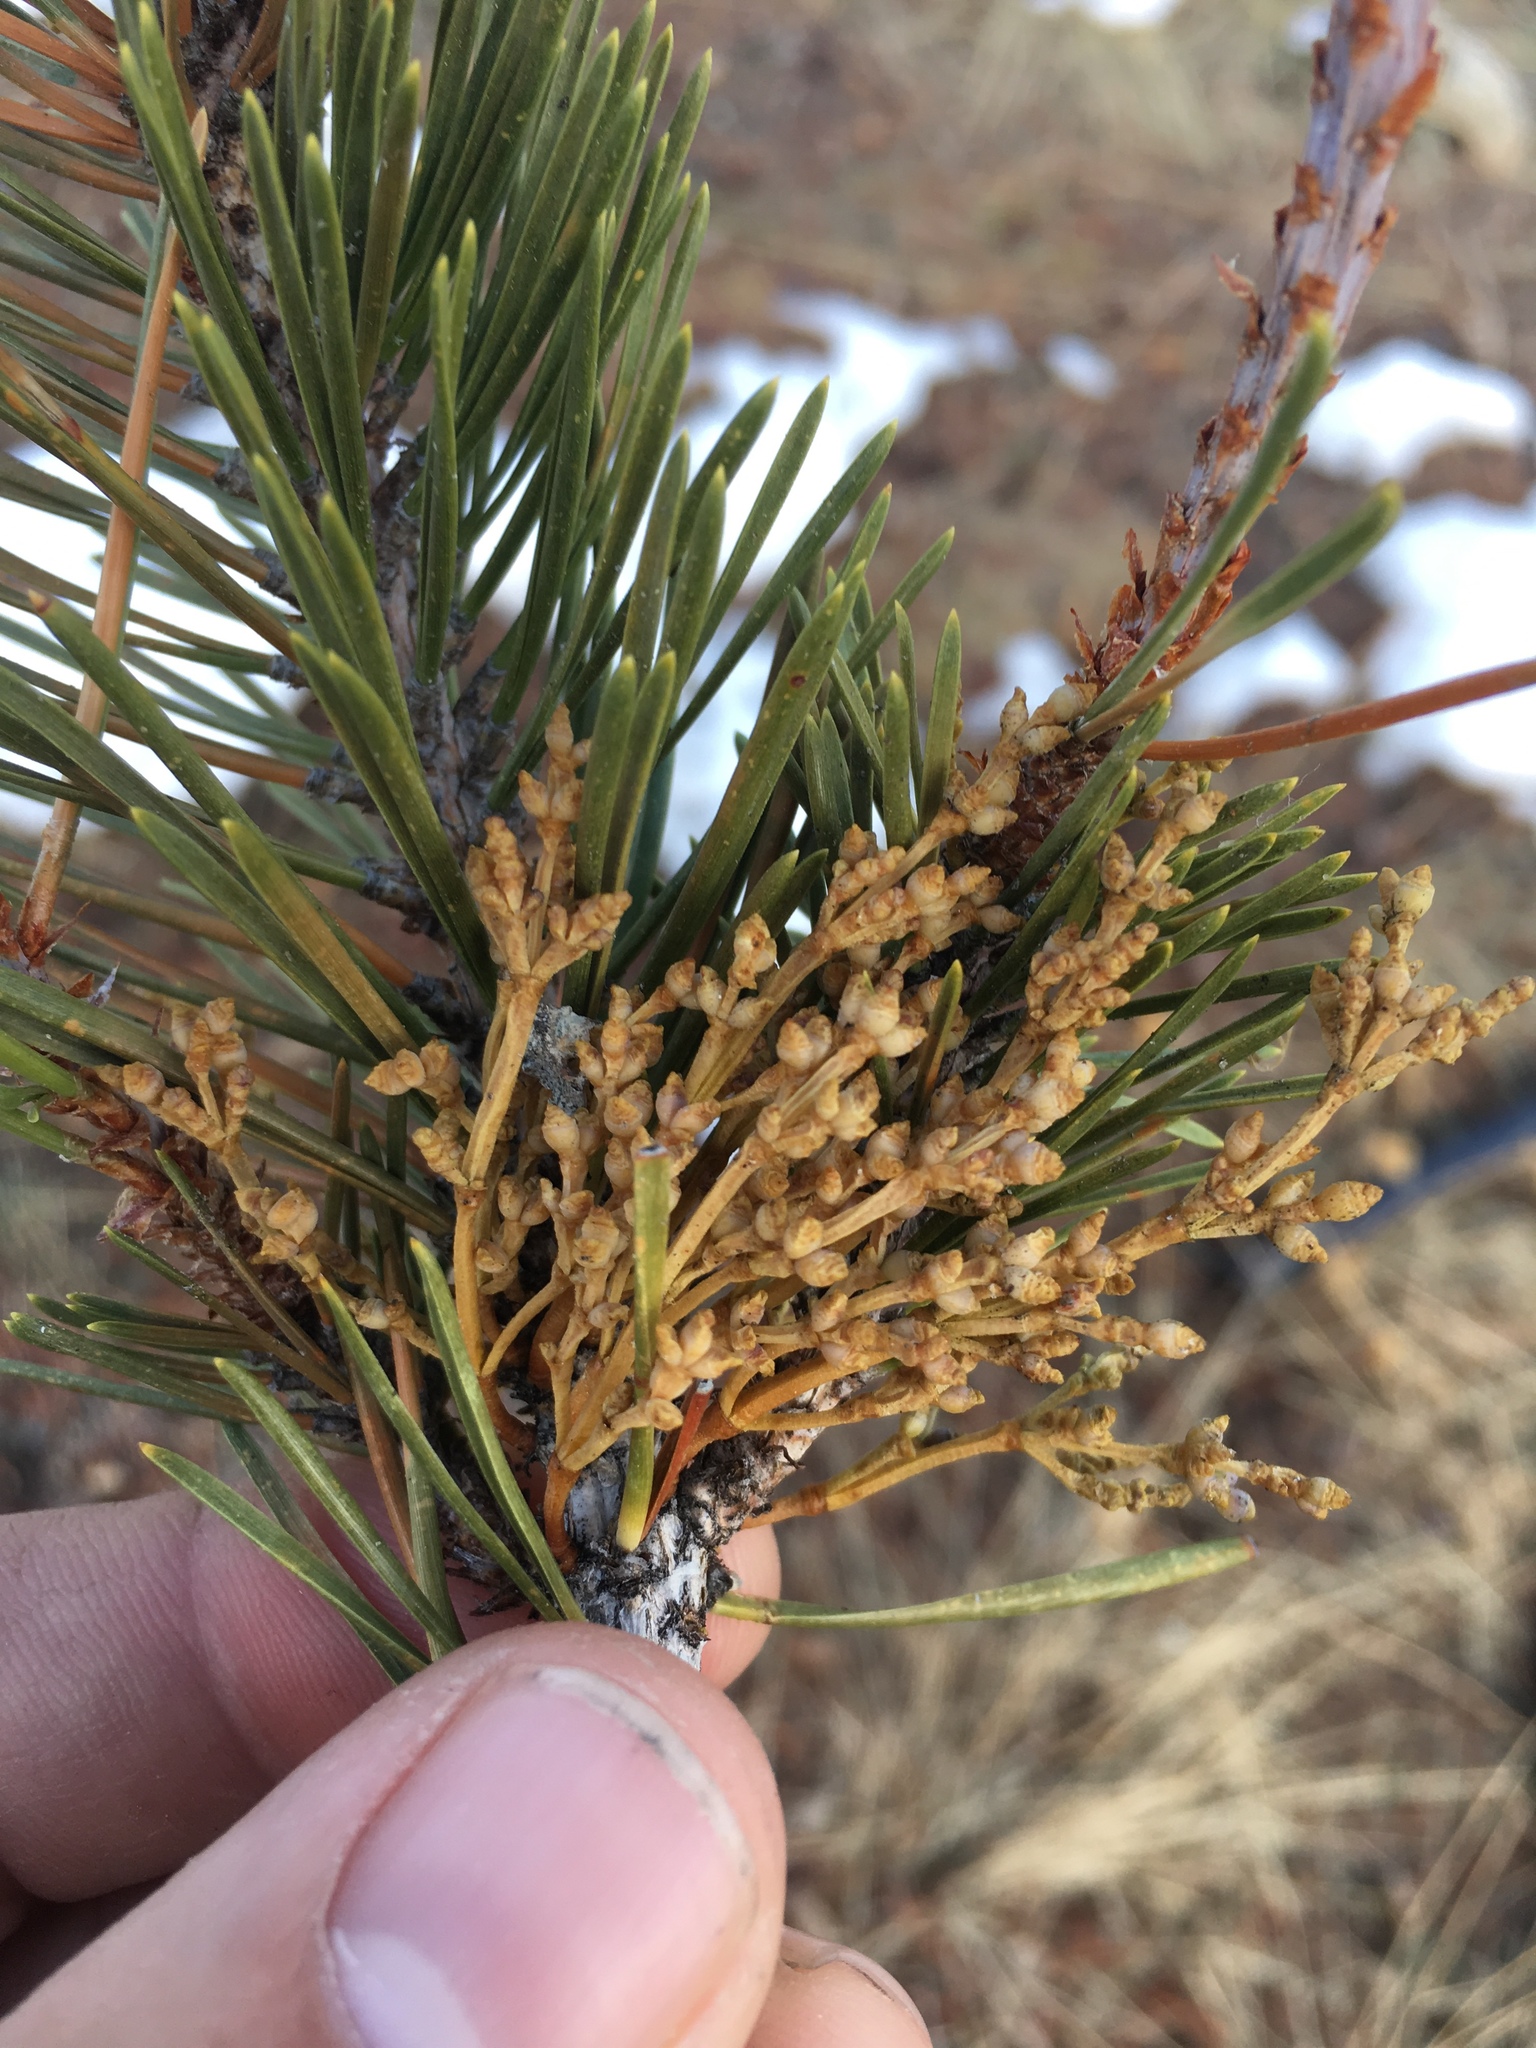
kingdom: Plantae
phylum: Tracheophyta
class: Magnoliopsida
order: Santalales
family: Viscaceae
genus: Arceuthobium
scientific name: Arceuthobium americanum
